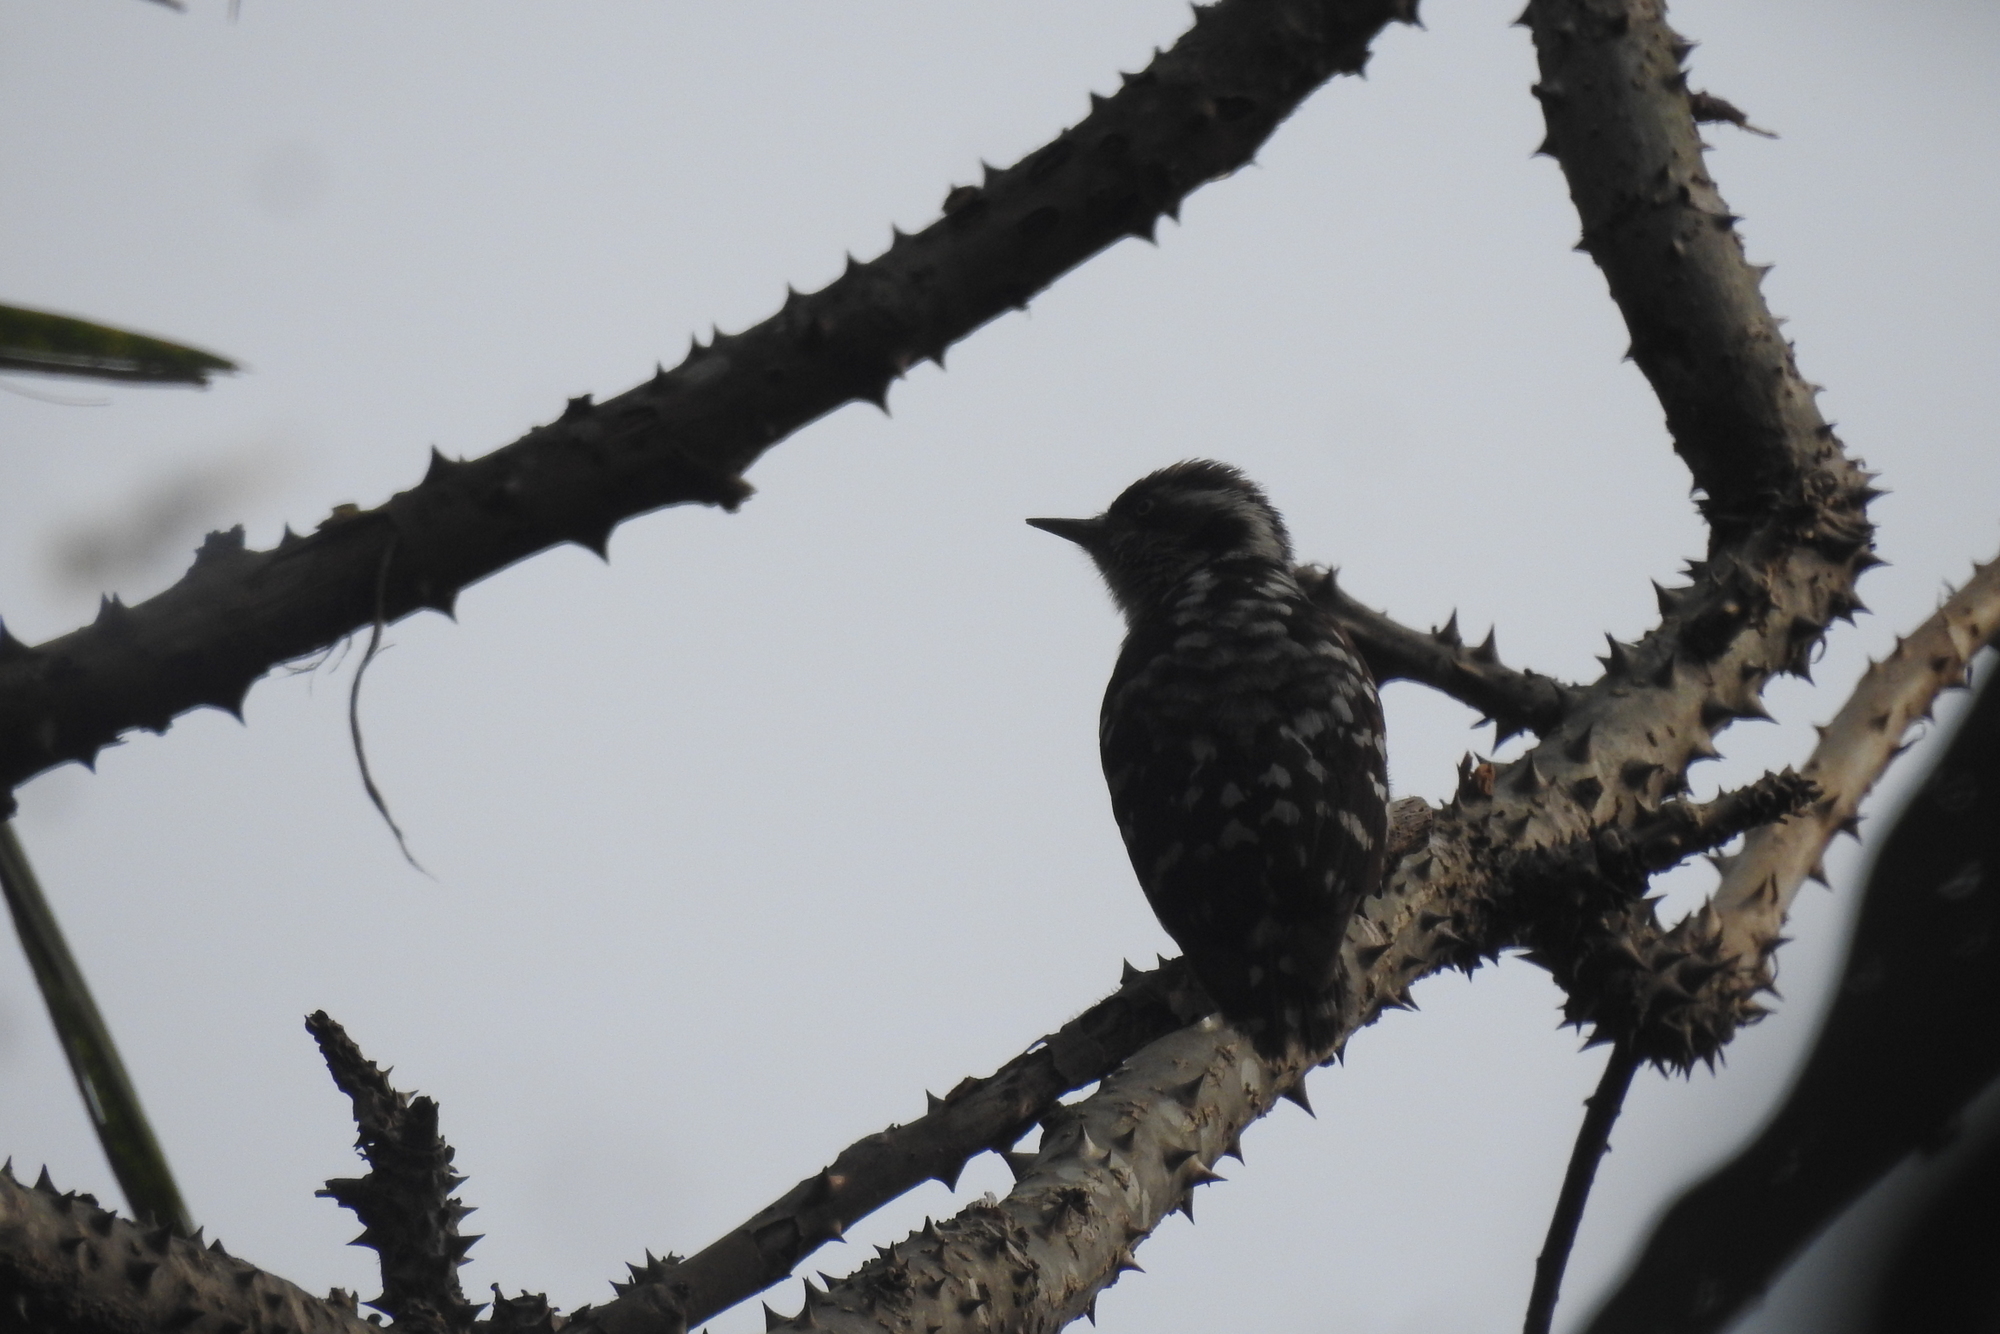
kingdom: Animalia
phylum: Chordata
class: Aves
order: Piciformes
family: Picidae
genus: Yungipicus
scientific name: Yungipicus nanus
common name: Brown-capped pygmy woodpecker
